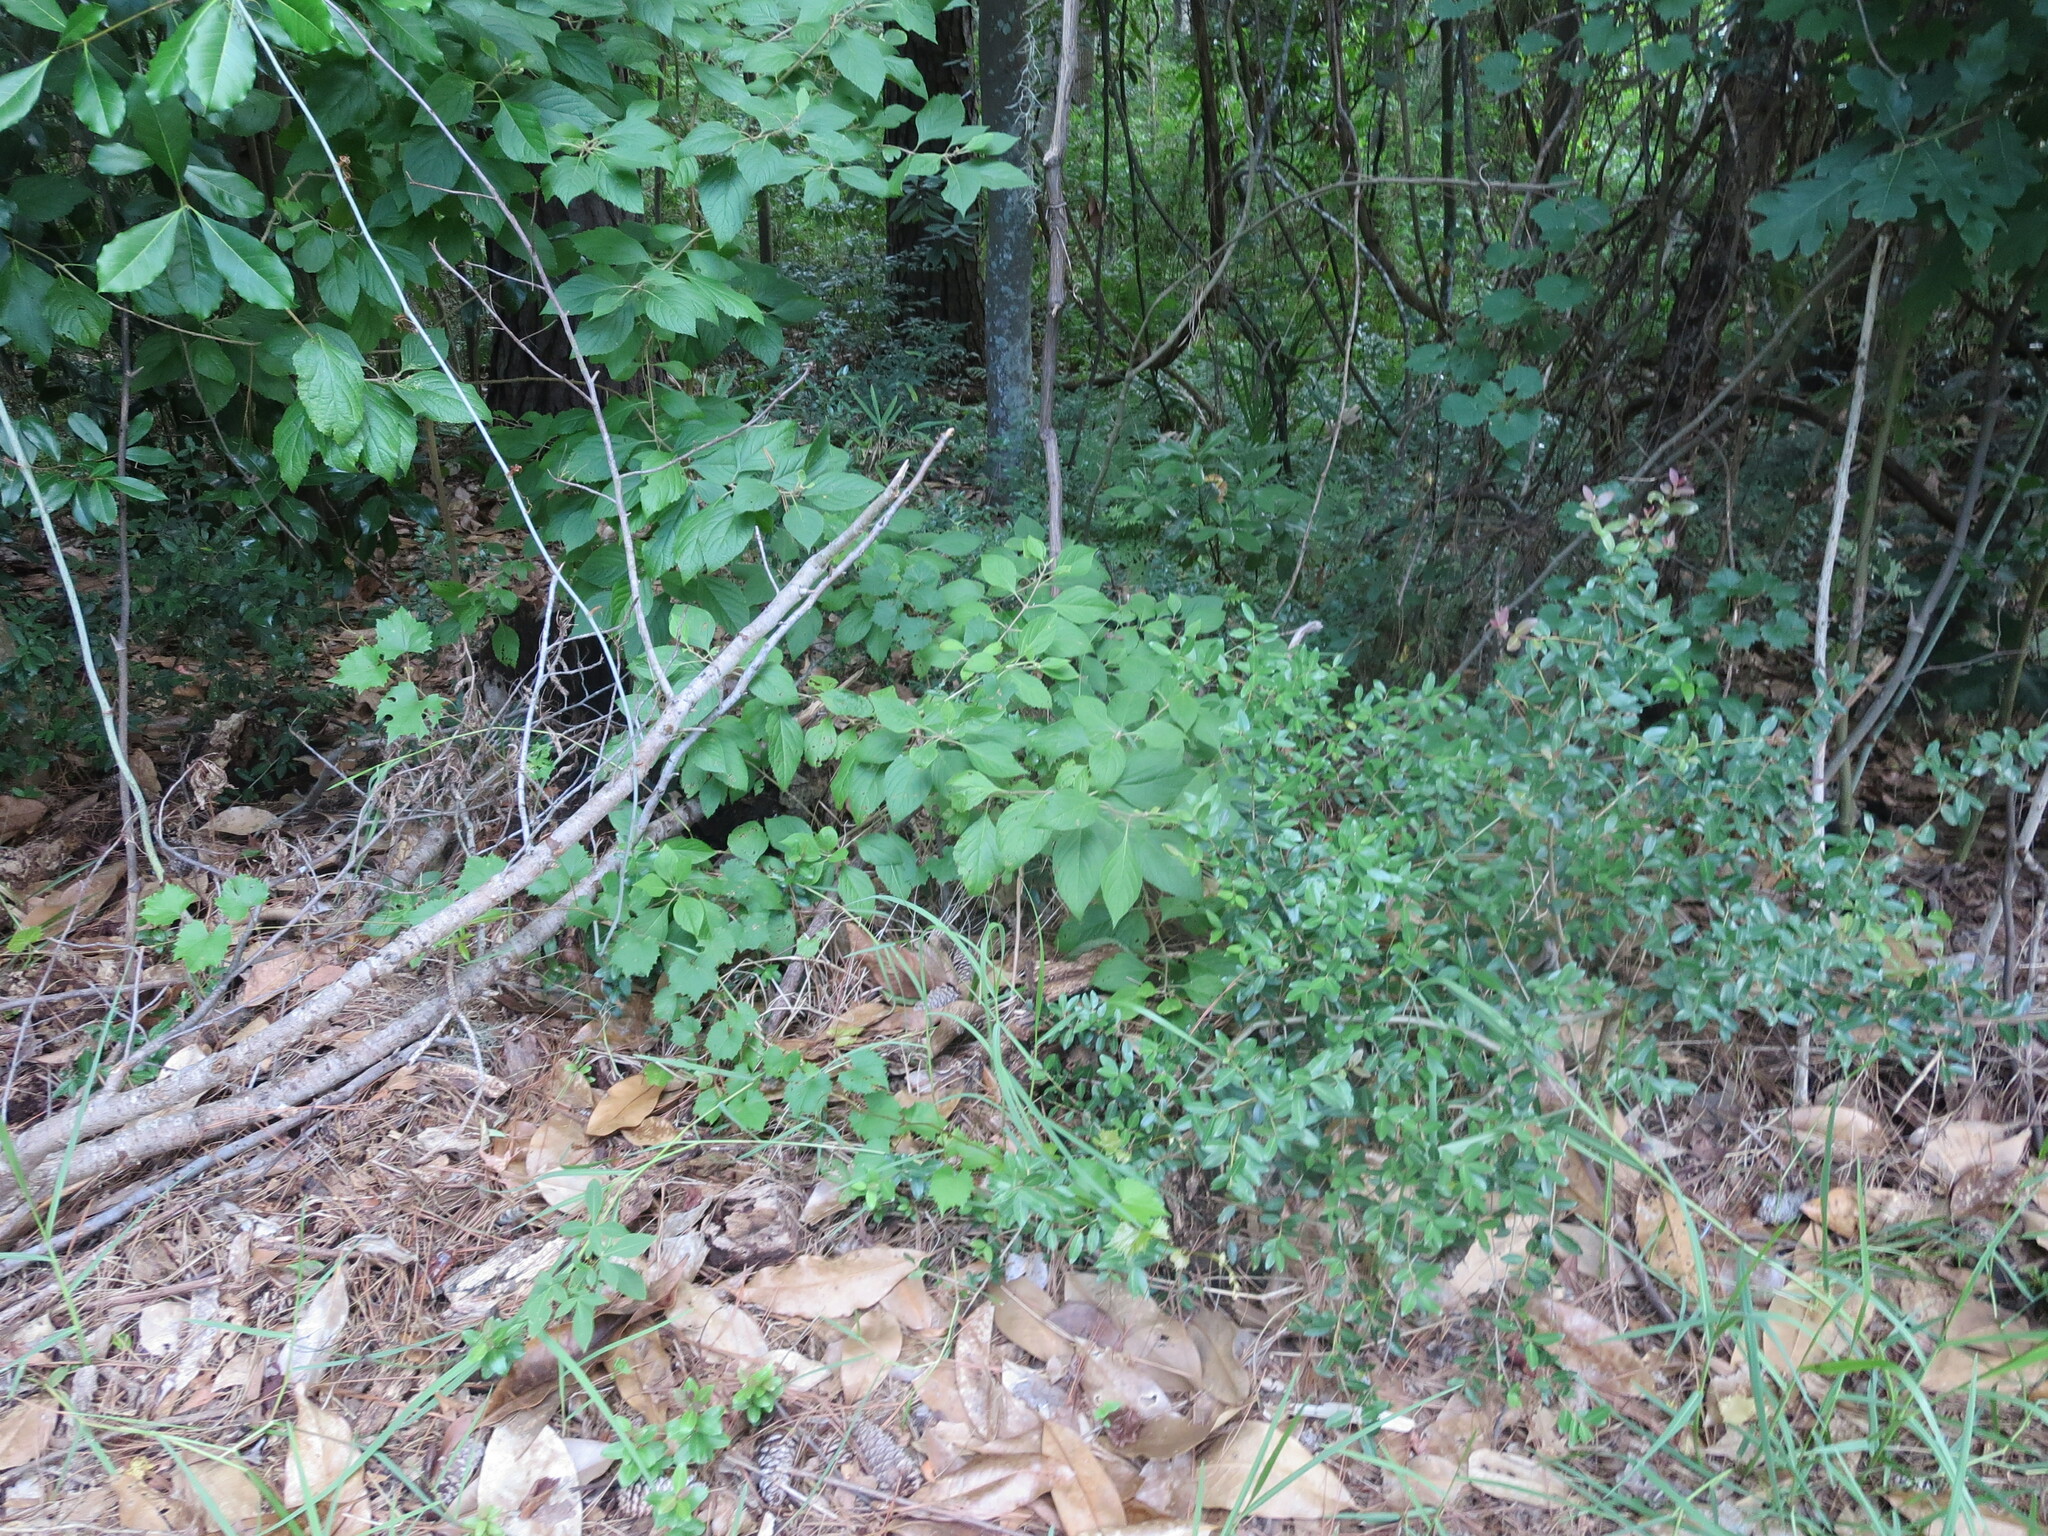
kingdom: Plantae
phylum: Tracheophyta
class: Magnoliopsida
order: Lamiales
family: Lamiaceae
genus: Callicarpa
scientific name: Callicarpa americana
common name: American beautyberry
